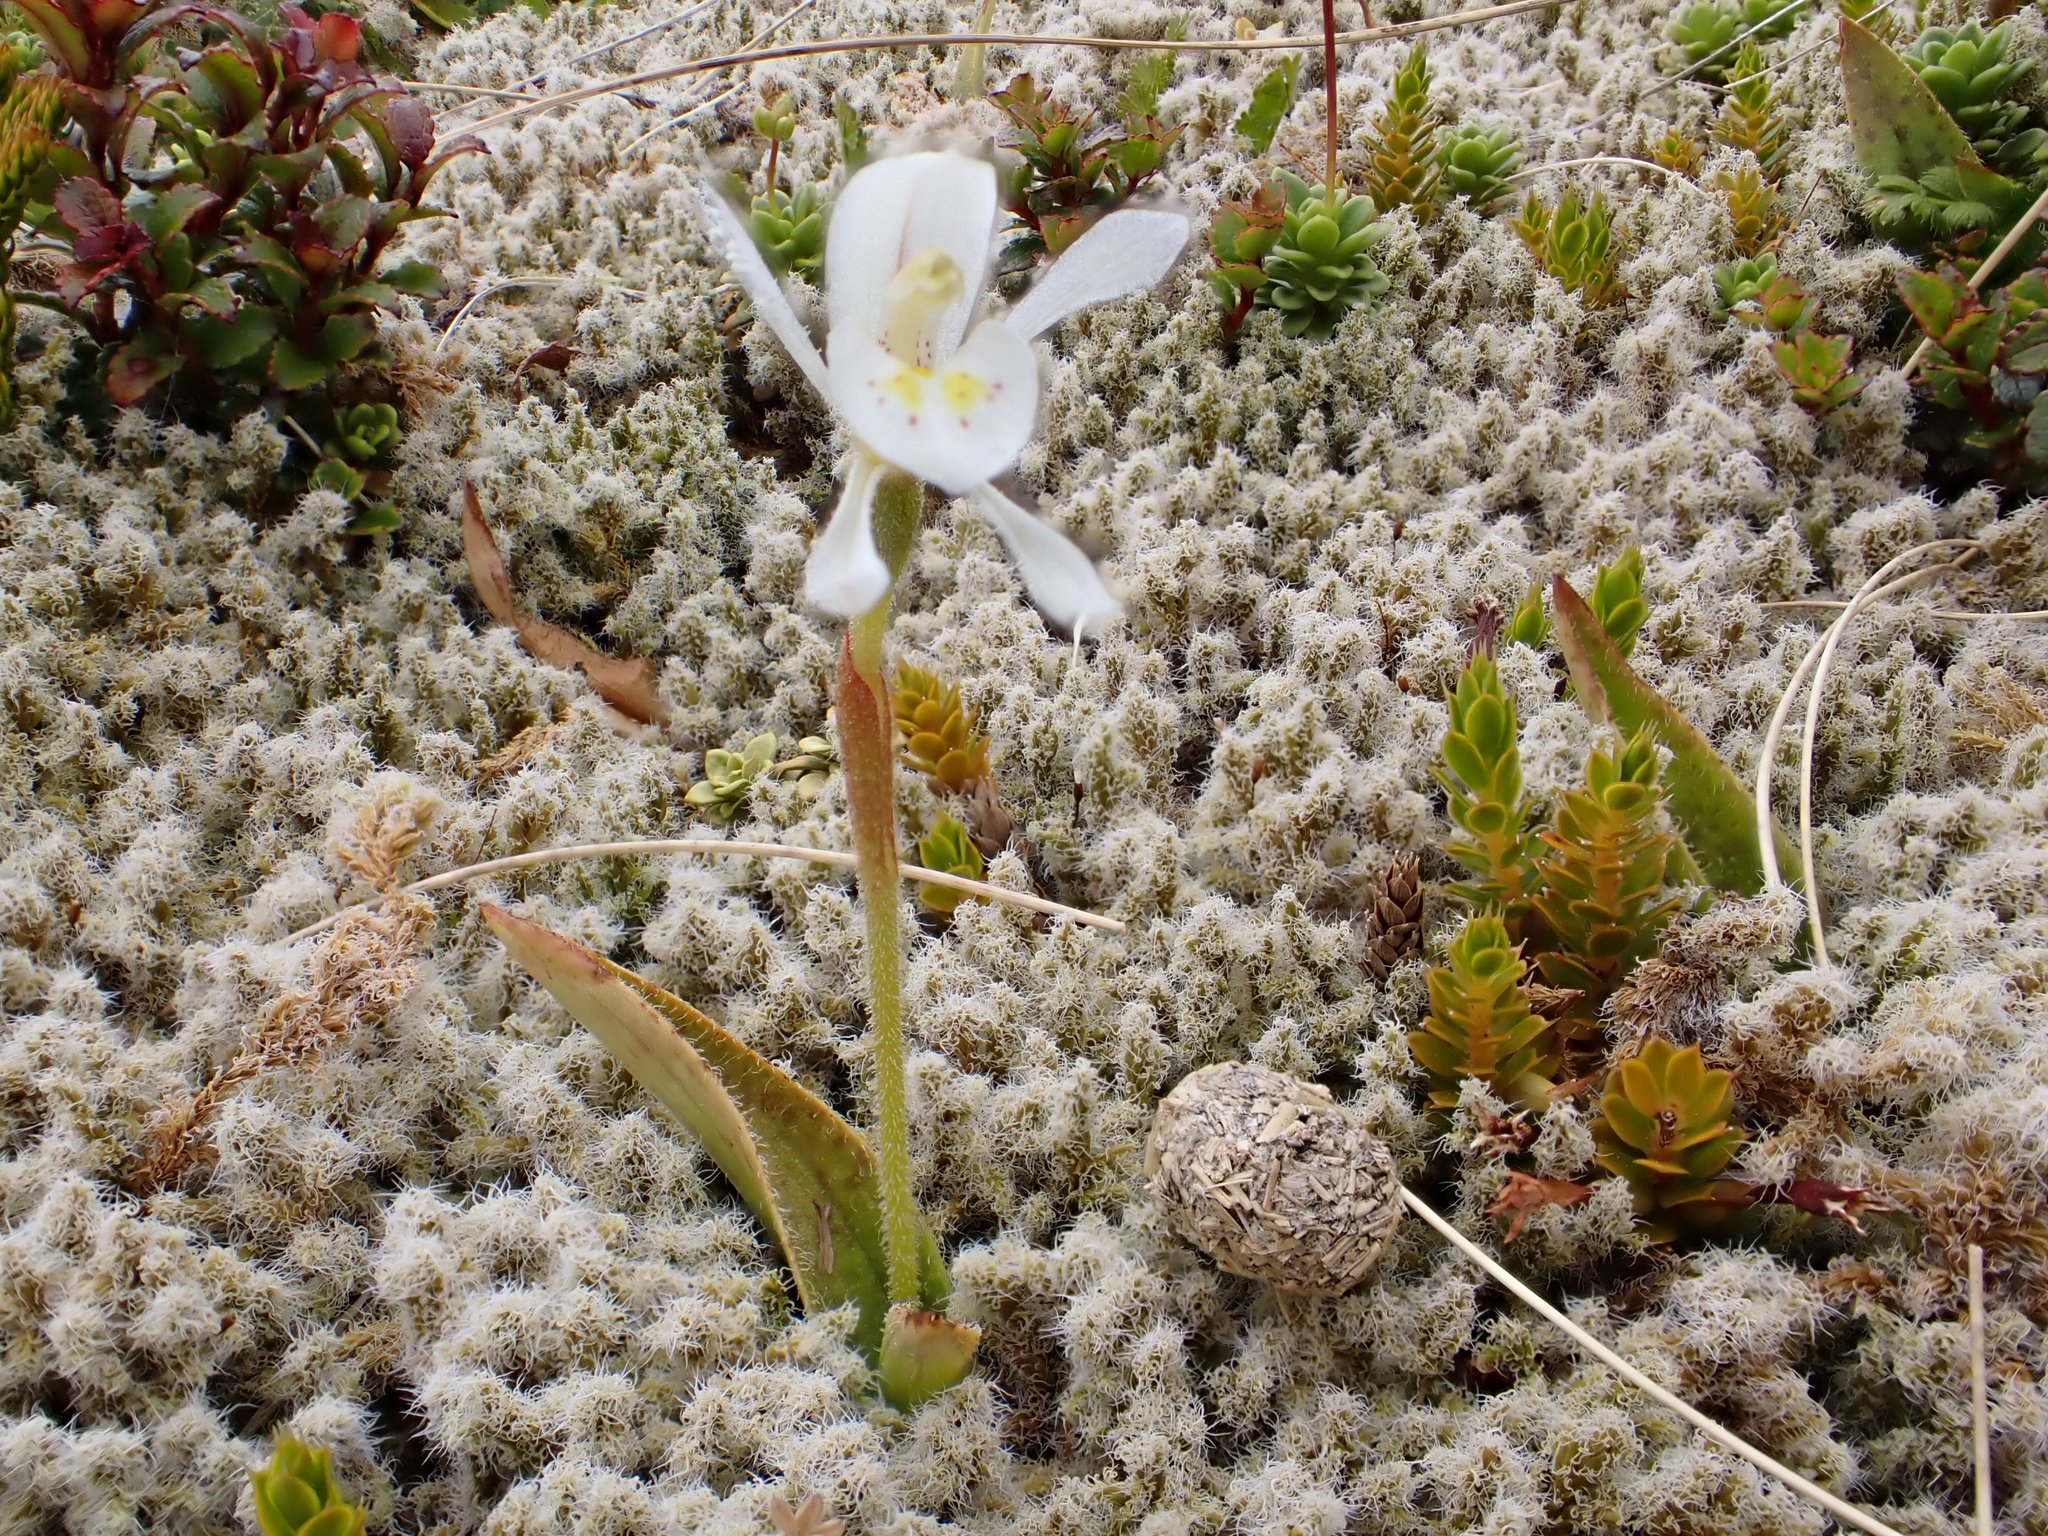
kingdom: Plantae
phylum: Tracheophyta
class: Liliopsida
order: Asparagales
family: Orchidaceae
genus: Aporostylis
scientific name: Aporostylis bifolia
